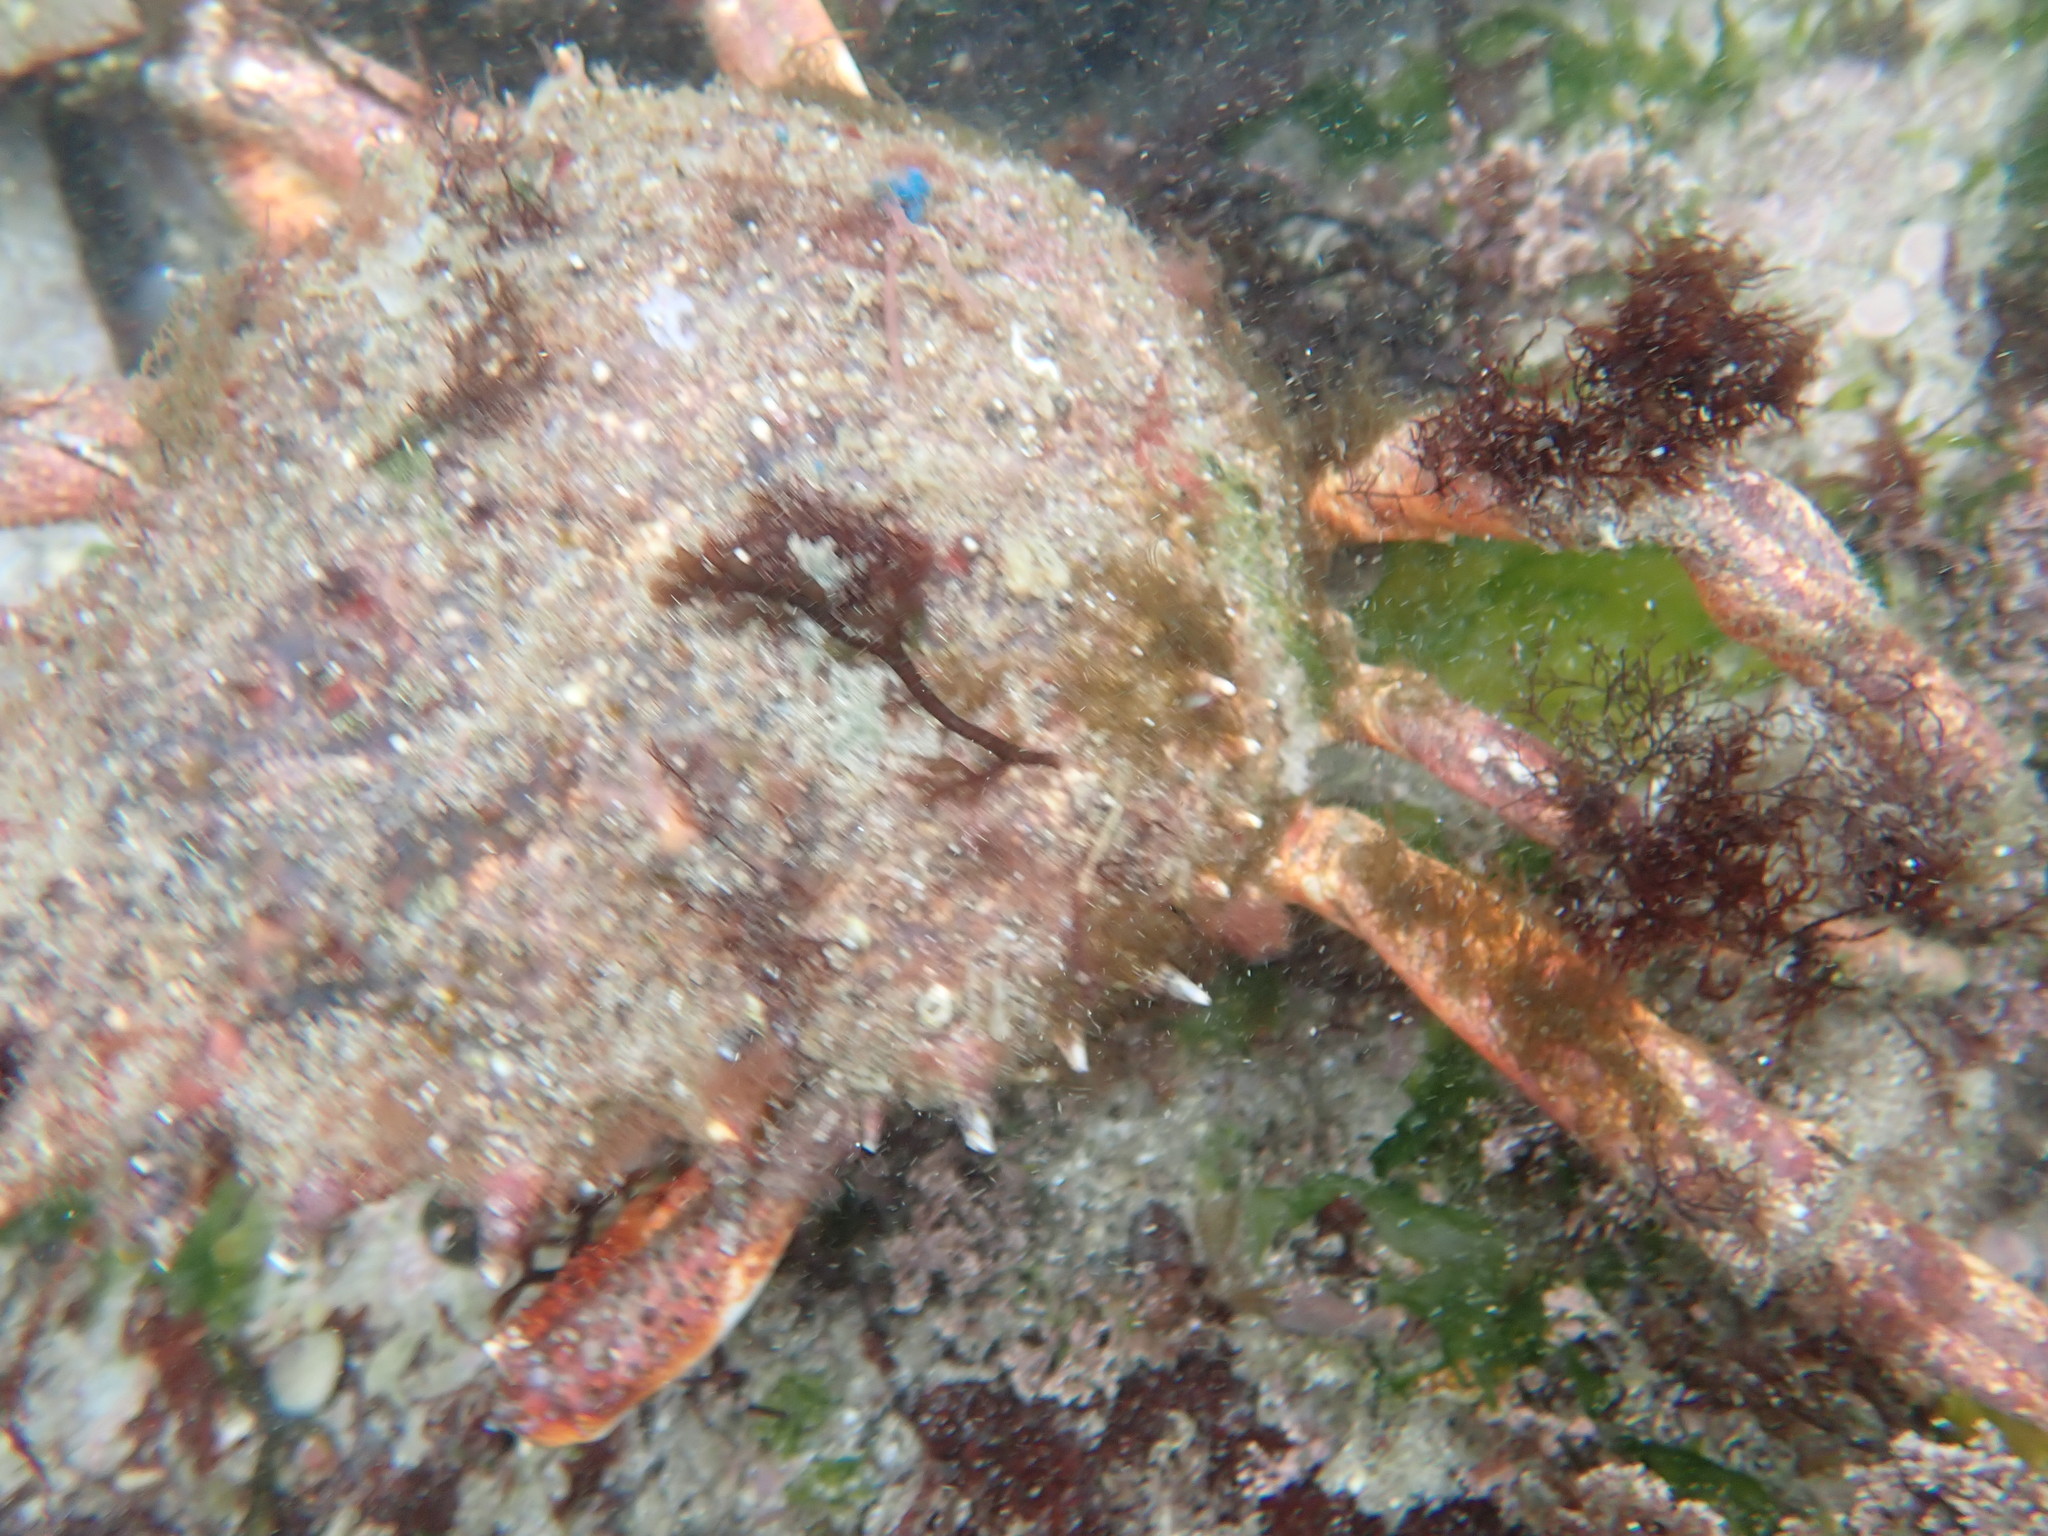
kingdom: Animalia
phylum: Arthropoda
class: Malacostraca
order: Decapoda
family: Majidae
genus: Maja
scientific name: Maja brachydactyla
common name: Common spider crab
